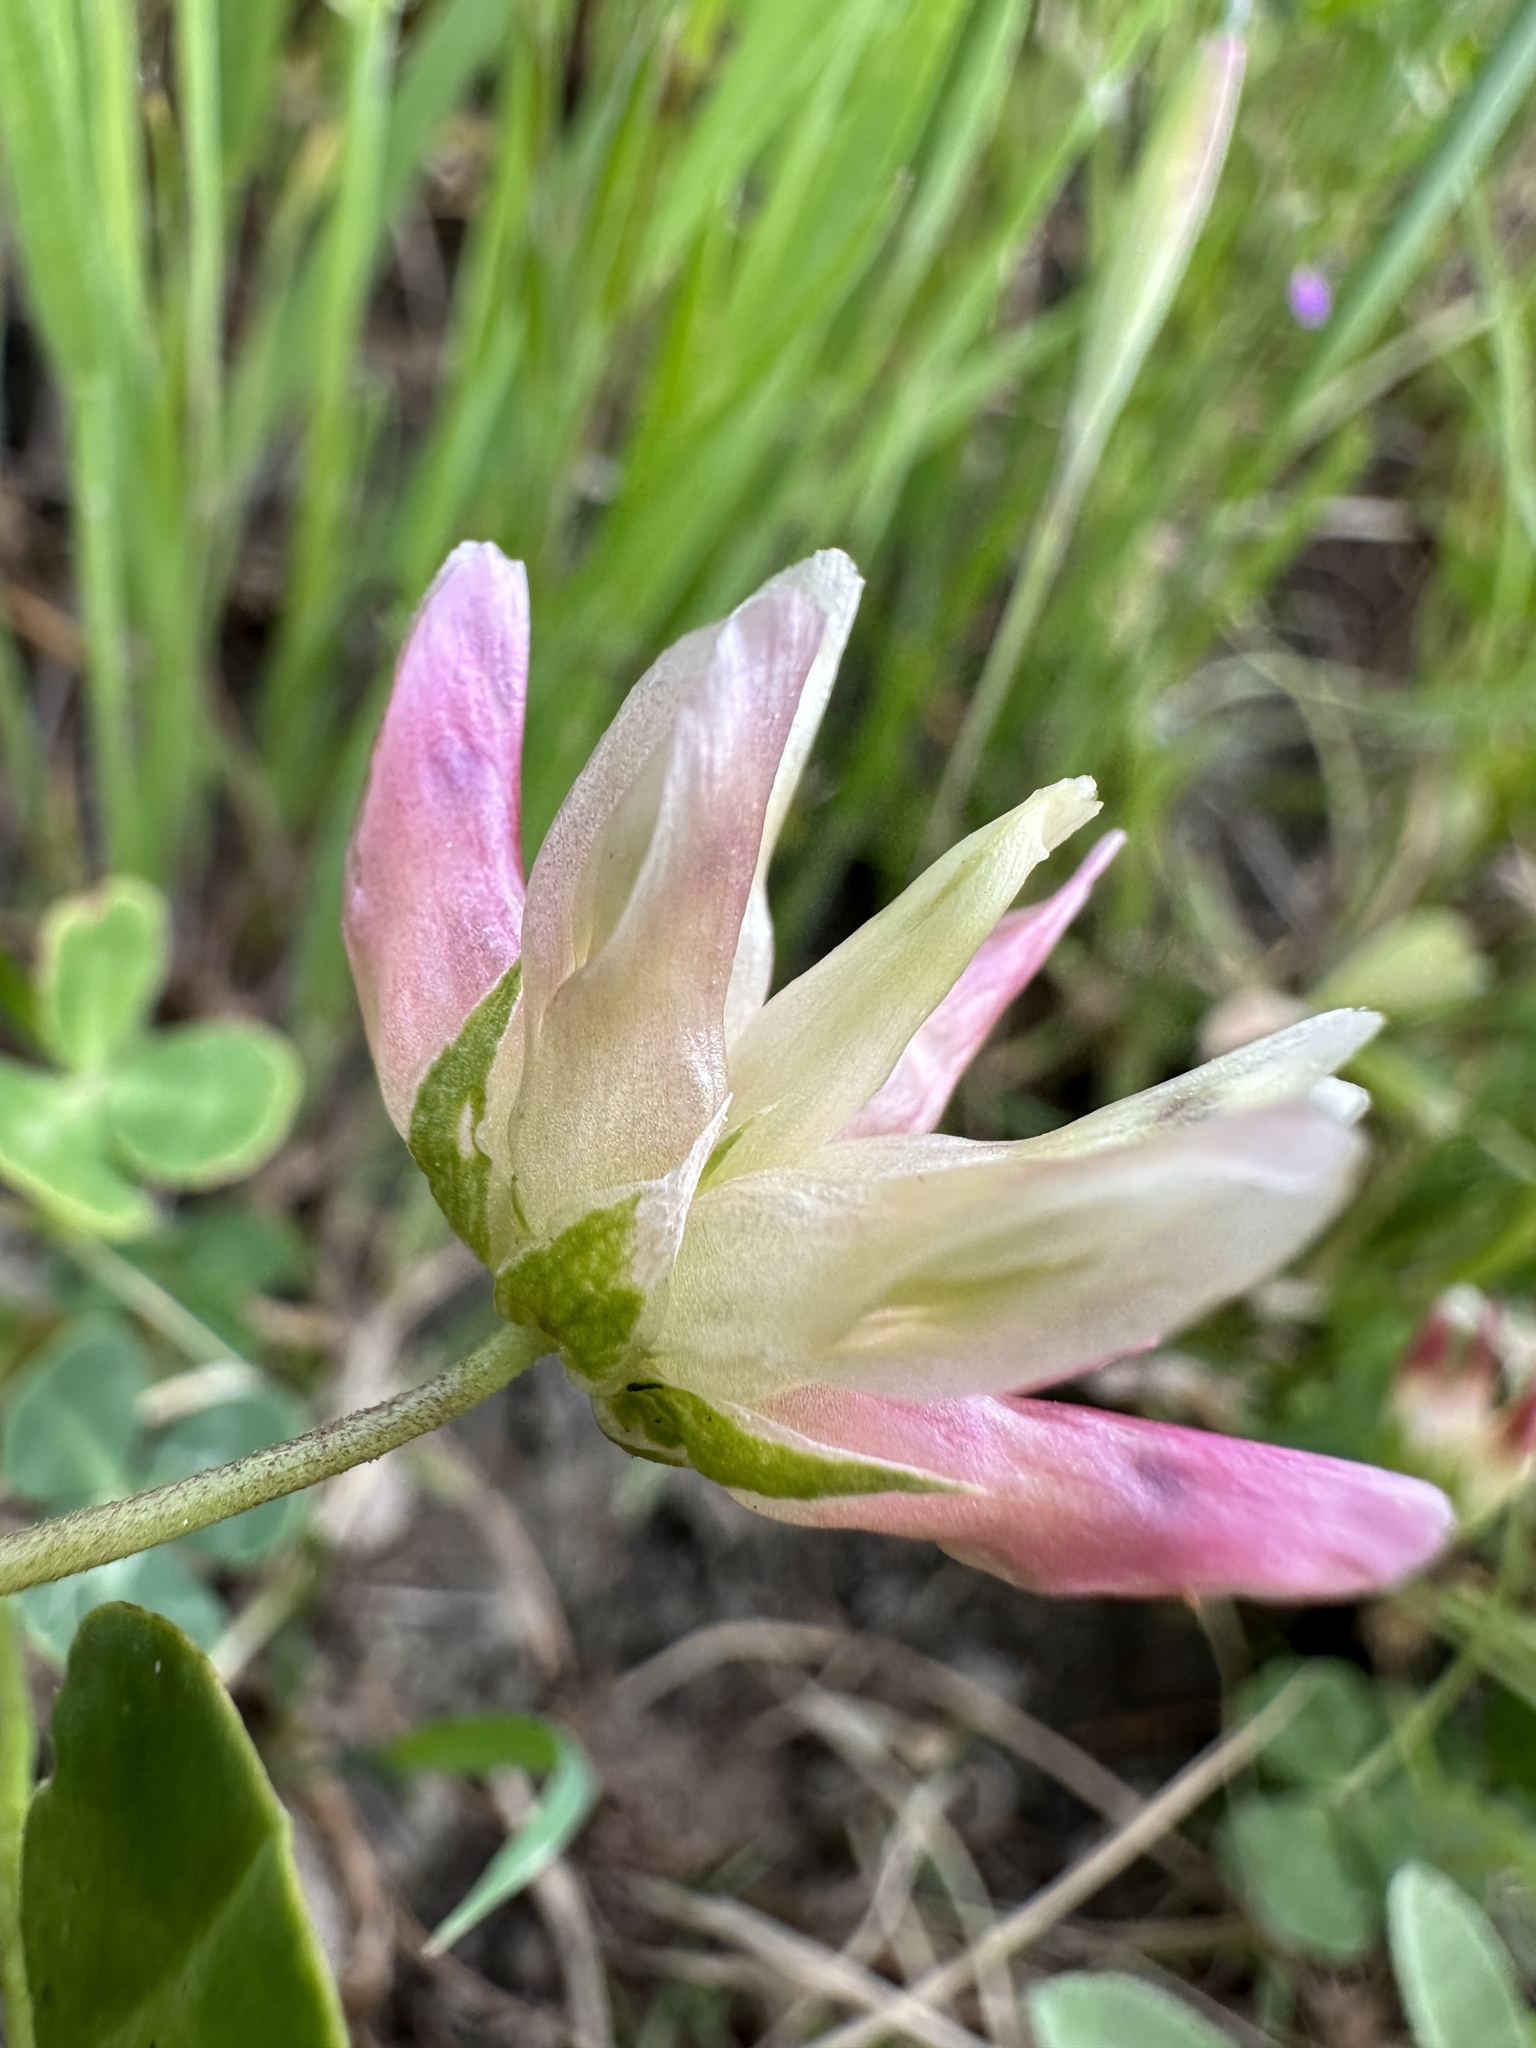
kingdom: Plantae
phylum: Tracheophyta
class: Magnoliopsida
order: Fabales
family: Fabaceae
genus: Trifolium
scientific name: Trifolium fucatum
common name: Puff clover
